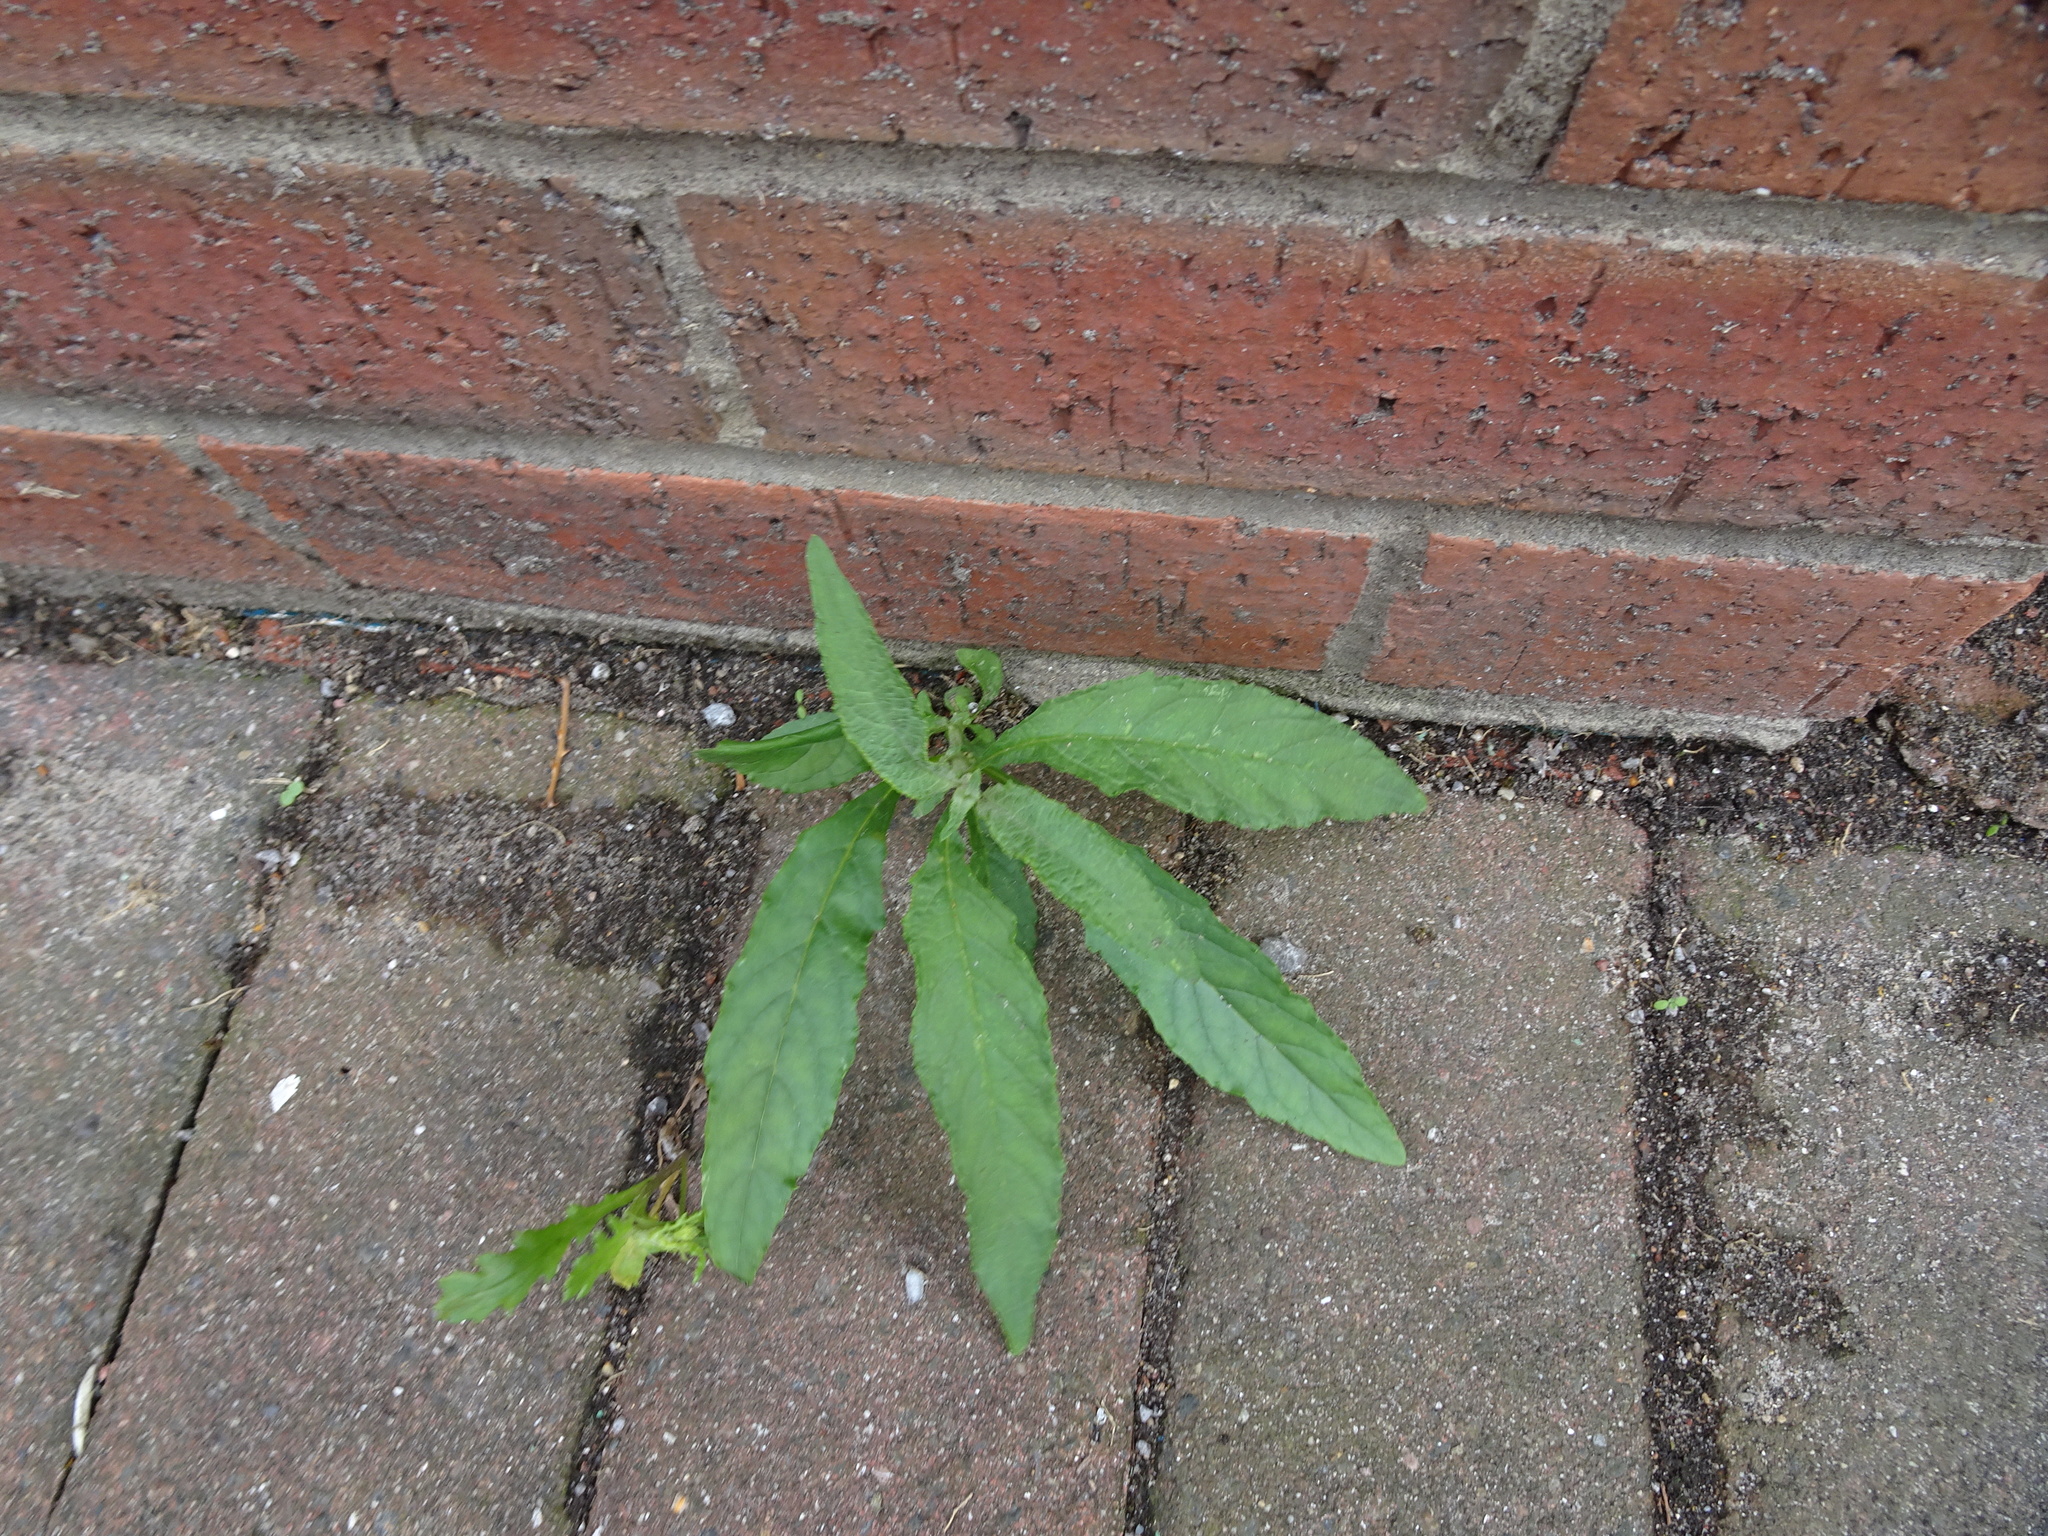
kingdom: Plantae
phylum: Tracheophyta
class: Magnoliopsida
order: Lamiales
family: Scrophulariaceae
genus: Buddleja
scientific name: Buddleja davidii
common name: Butterfly-bush
